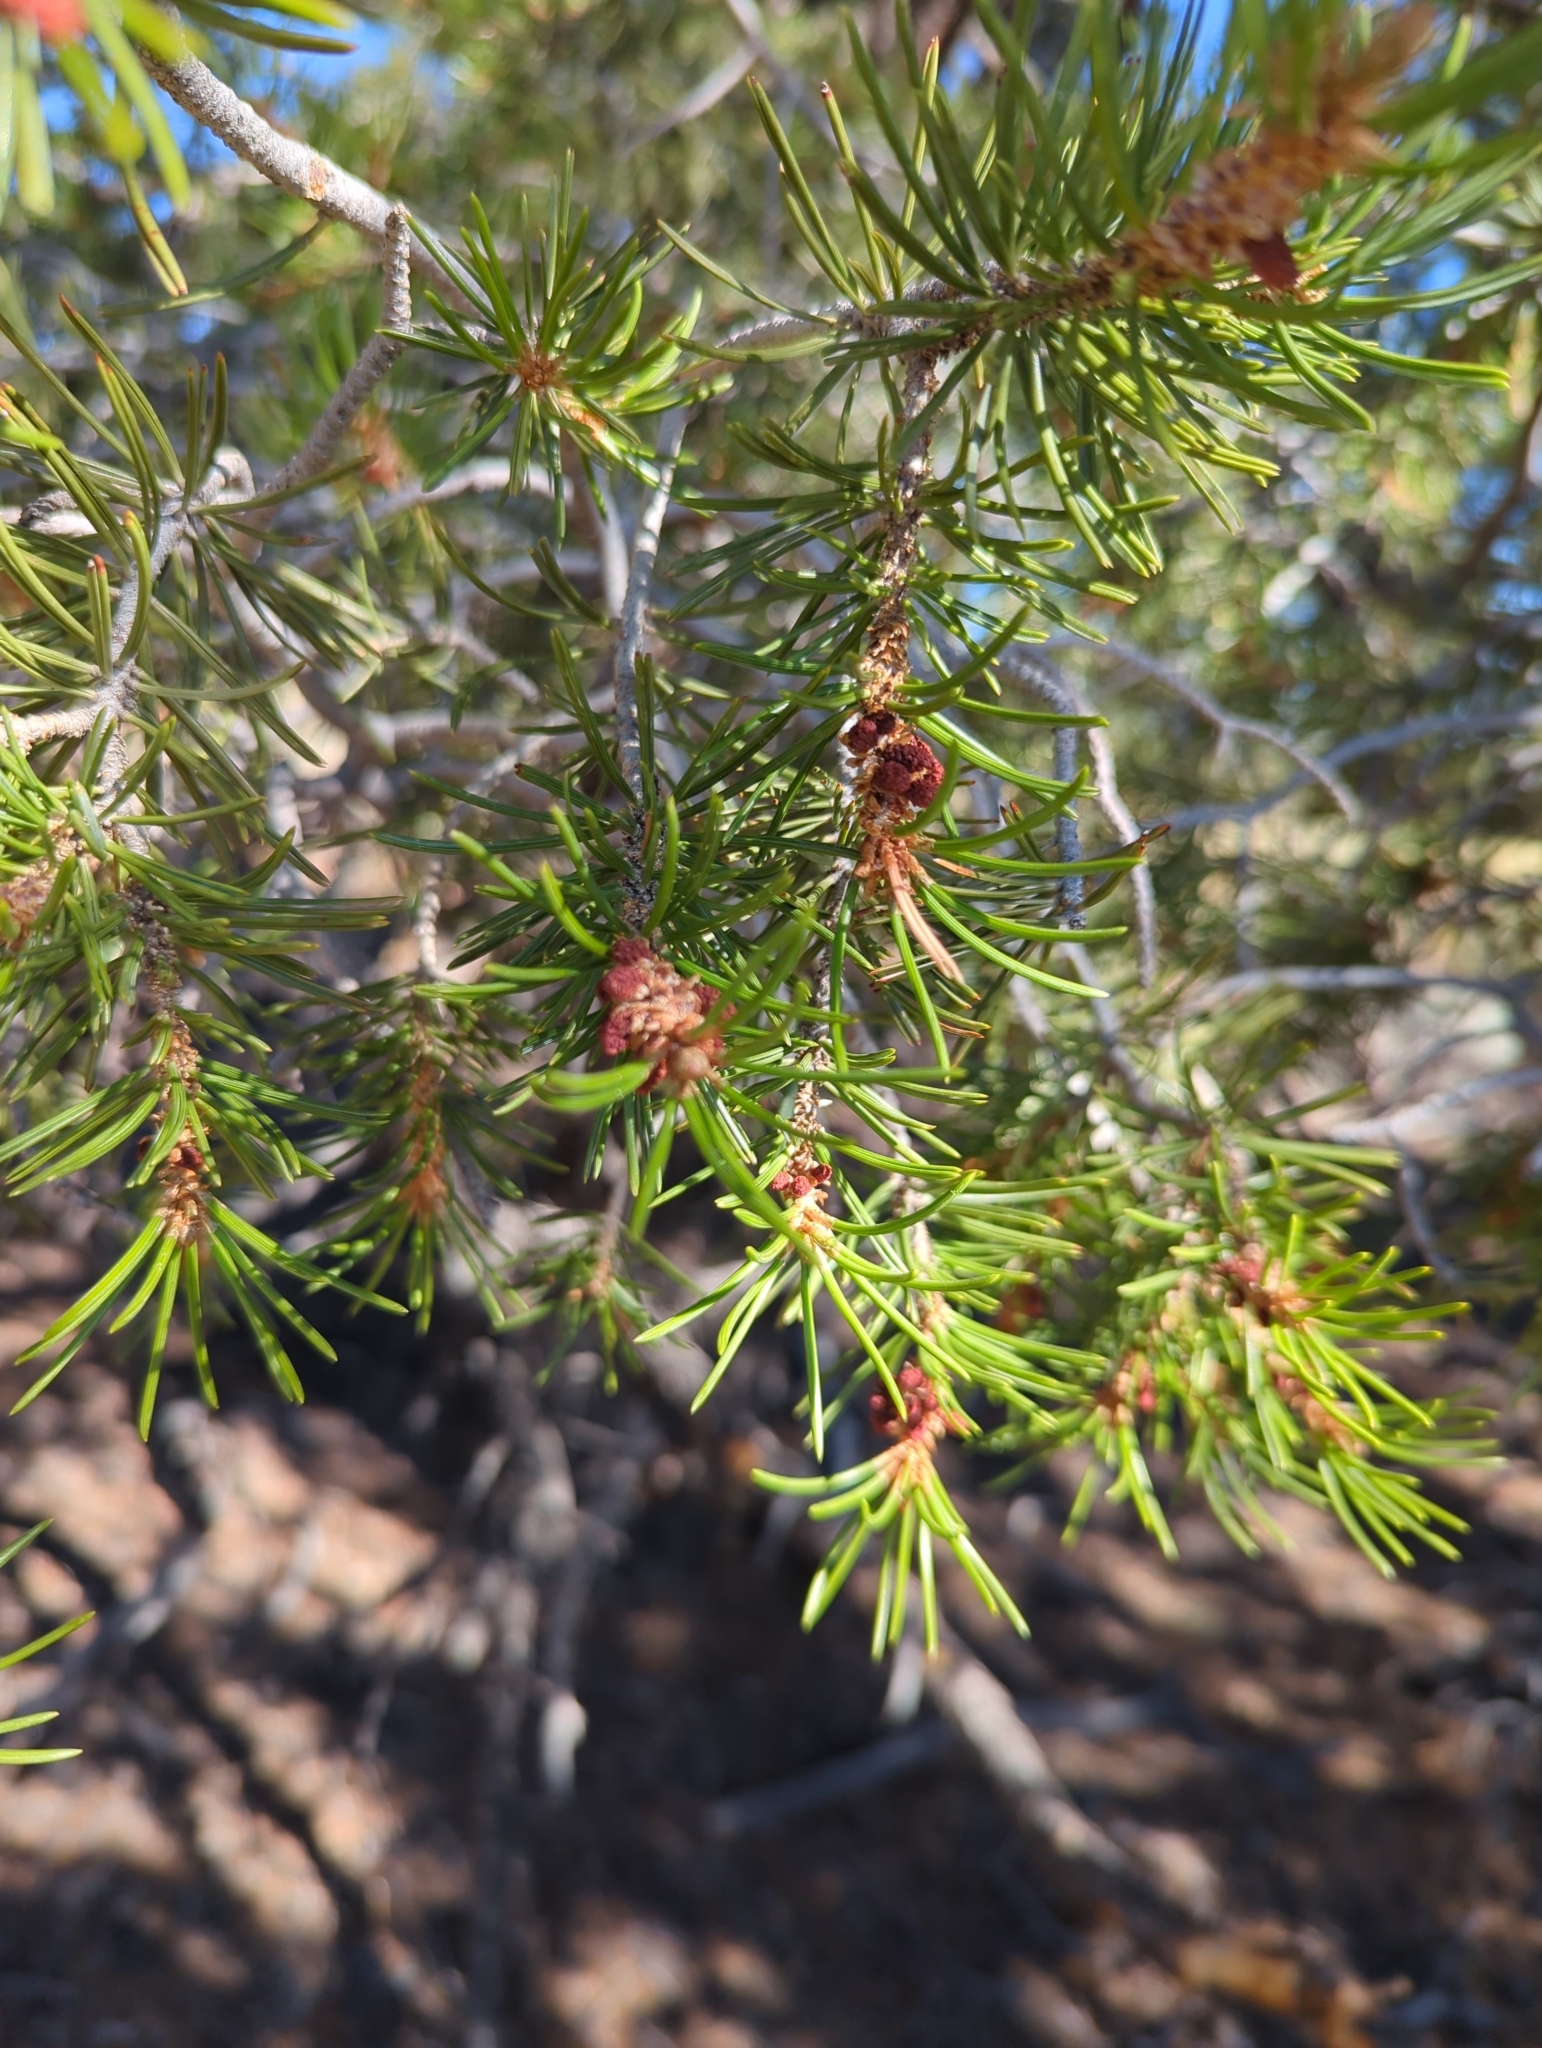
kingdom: Plantae
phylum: Tracheophyta
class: Pinopsida
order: Pinales
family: Pinaceae
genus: Pinus
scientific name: Pinus edulis
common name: Colorado pinyon
